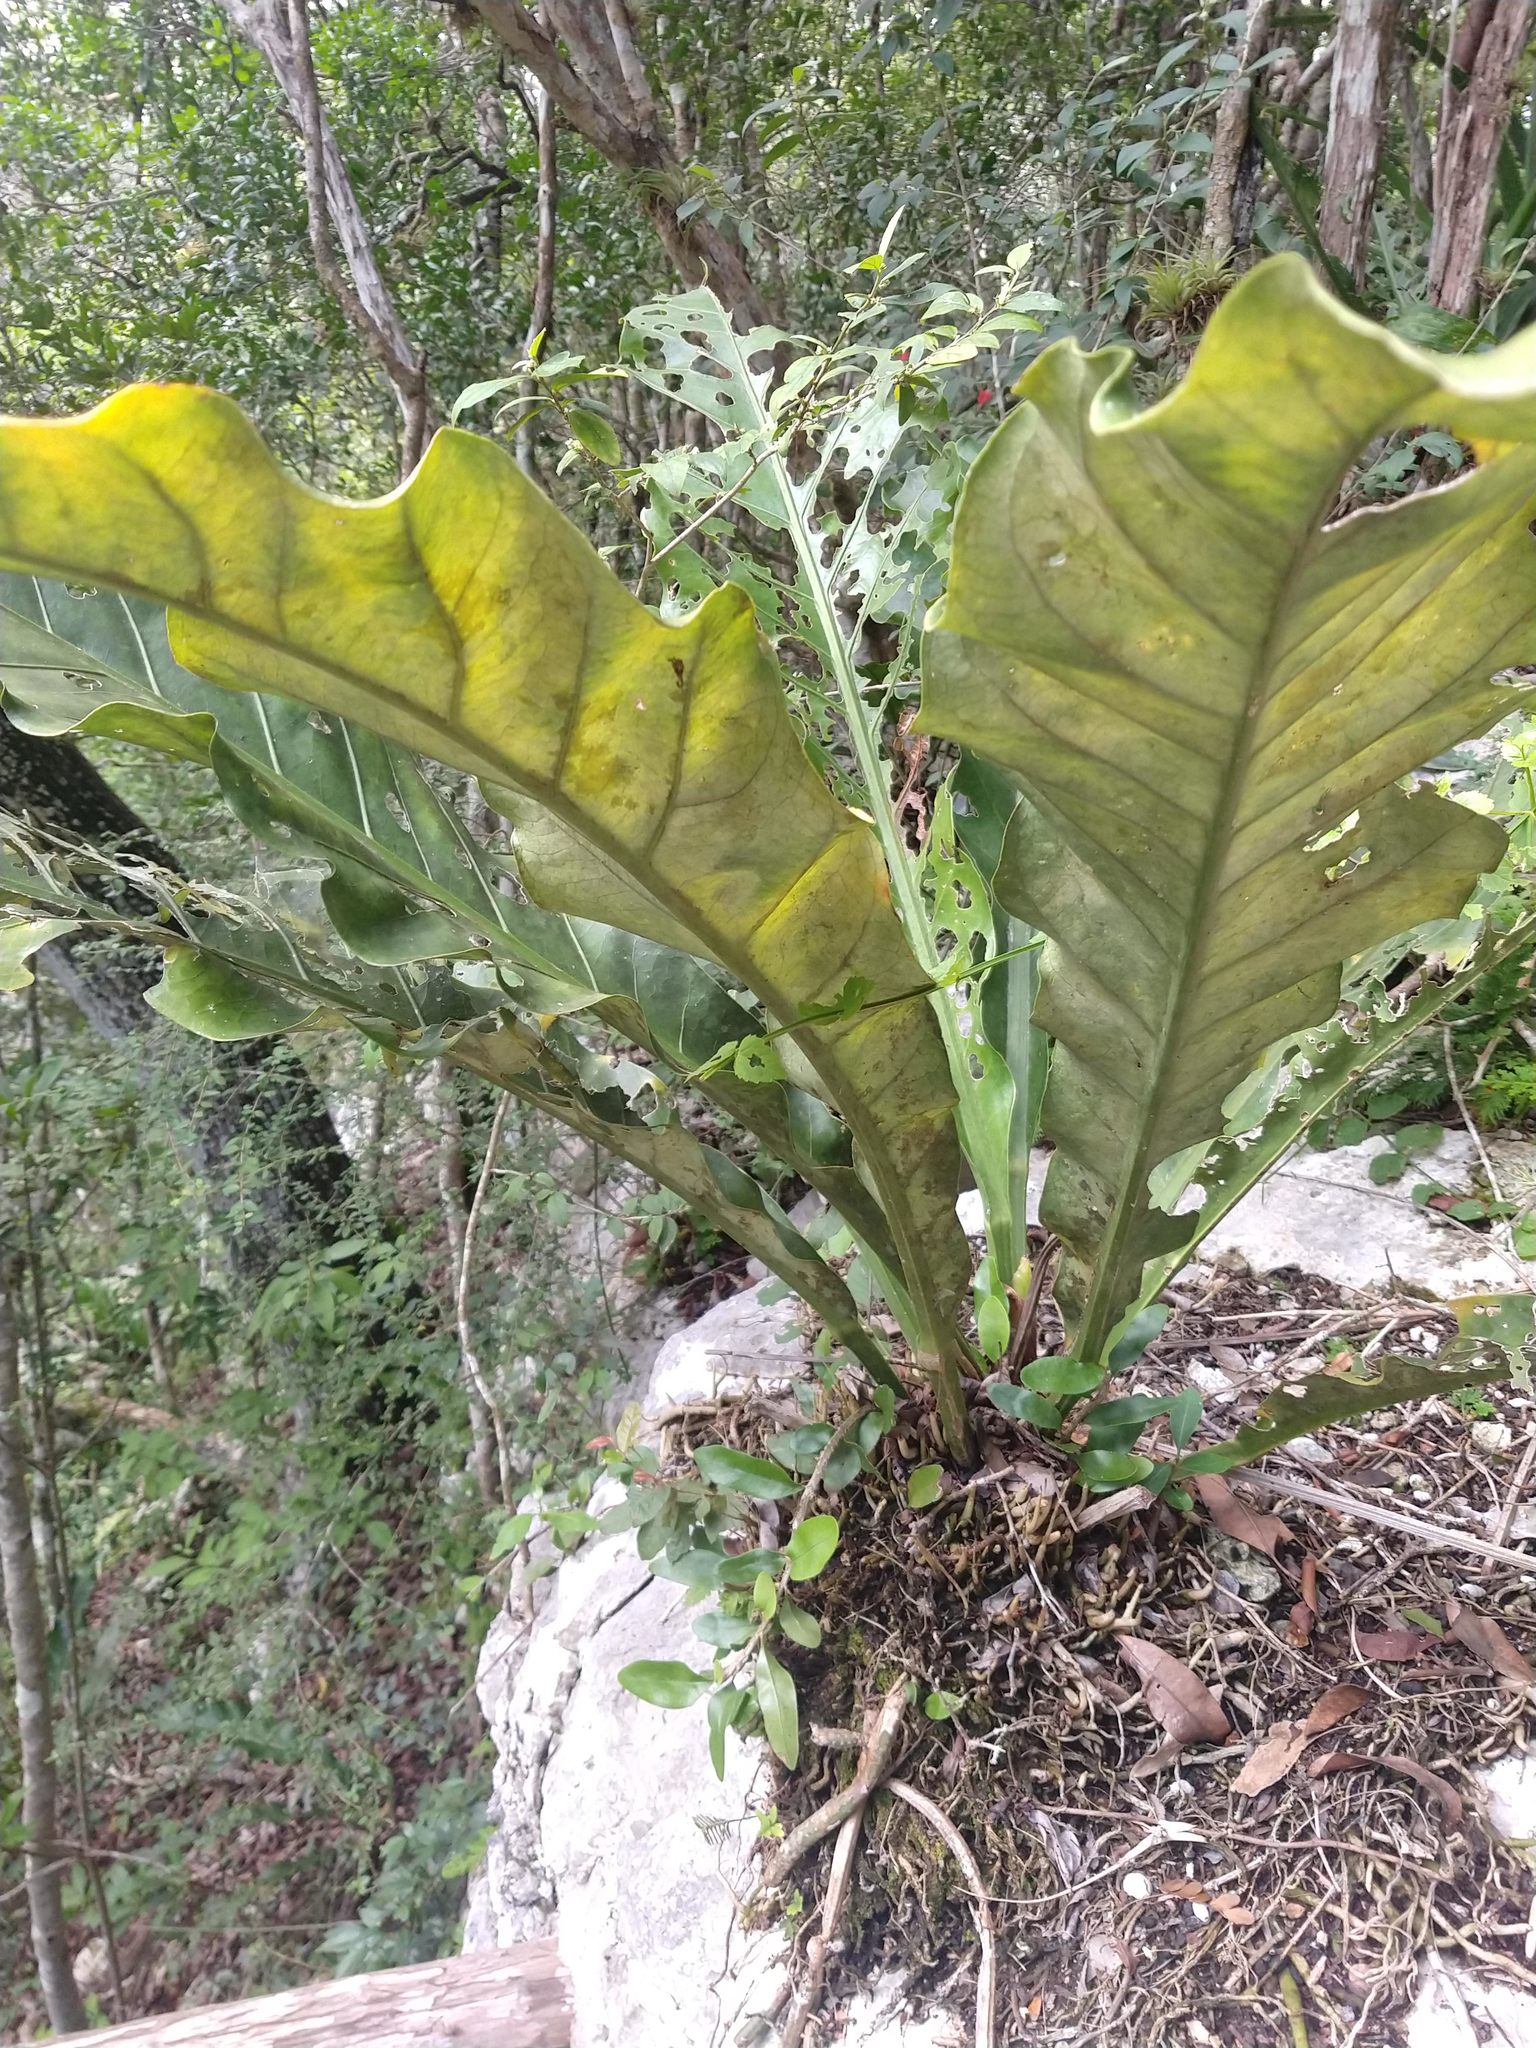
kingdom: Plantae
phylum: Tracheophyta
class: Liliopsida
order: Alismatales
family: Araceae
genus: Anthurium
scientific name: Anthurium schlechtendalii
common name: Laceleaf
